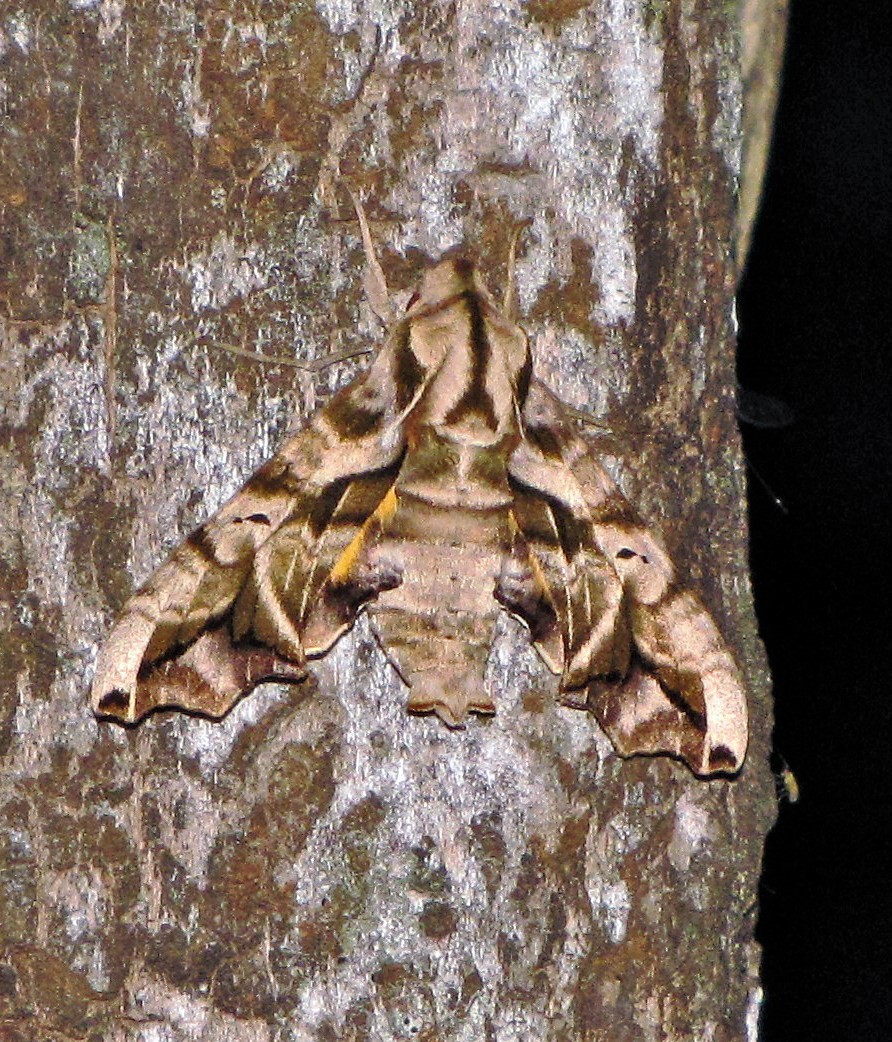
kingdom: Animalia
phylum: Arthropoda
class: Insecta
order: Lepidoptera
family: Sphingidae
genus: Nyceryx
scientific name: Nyceryx alophus
